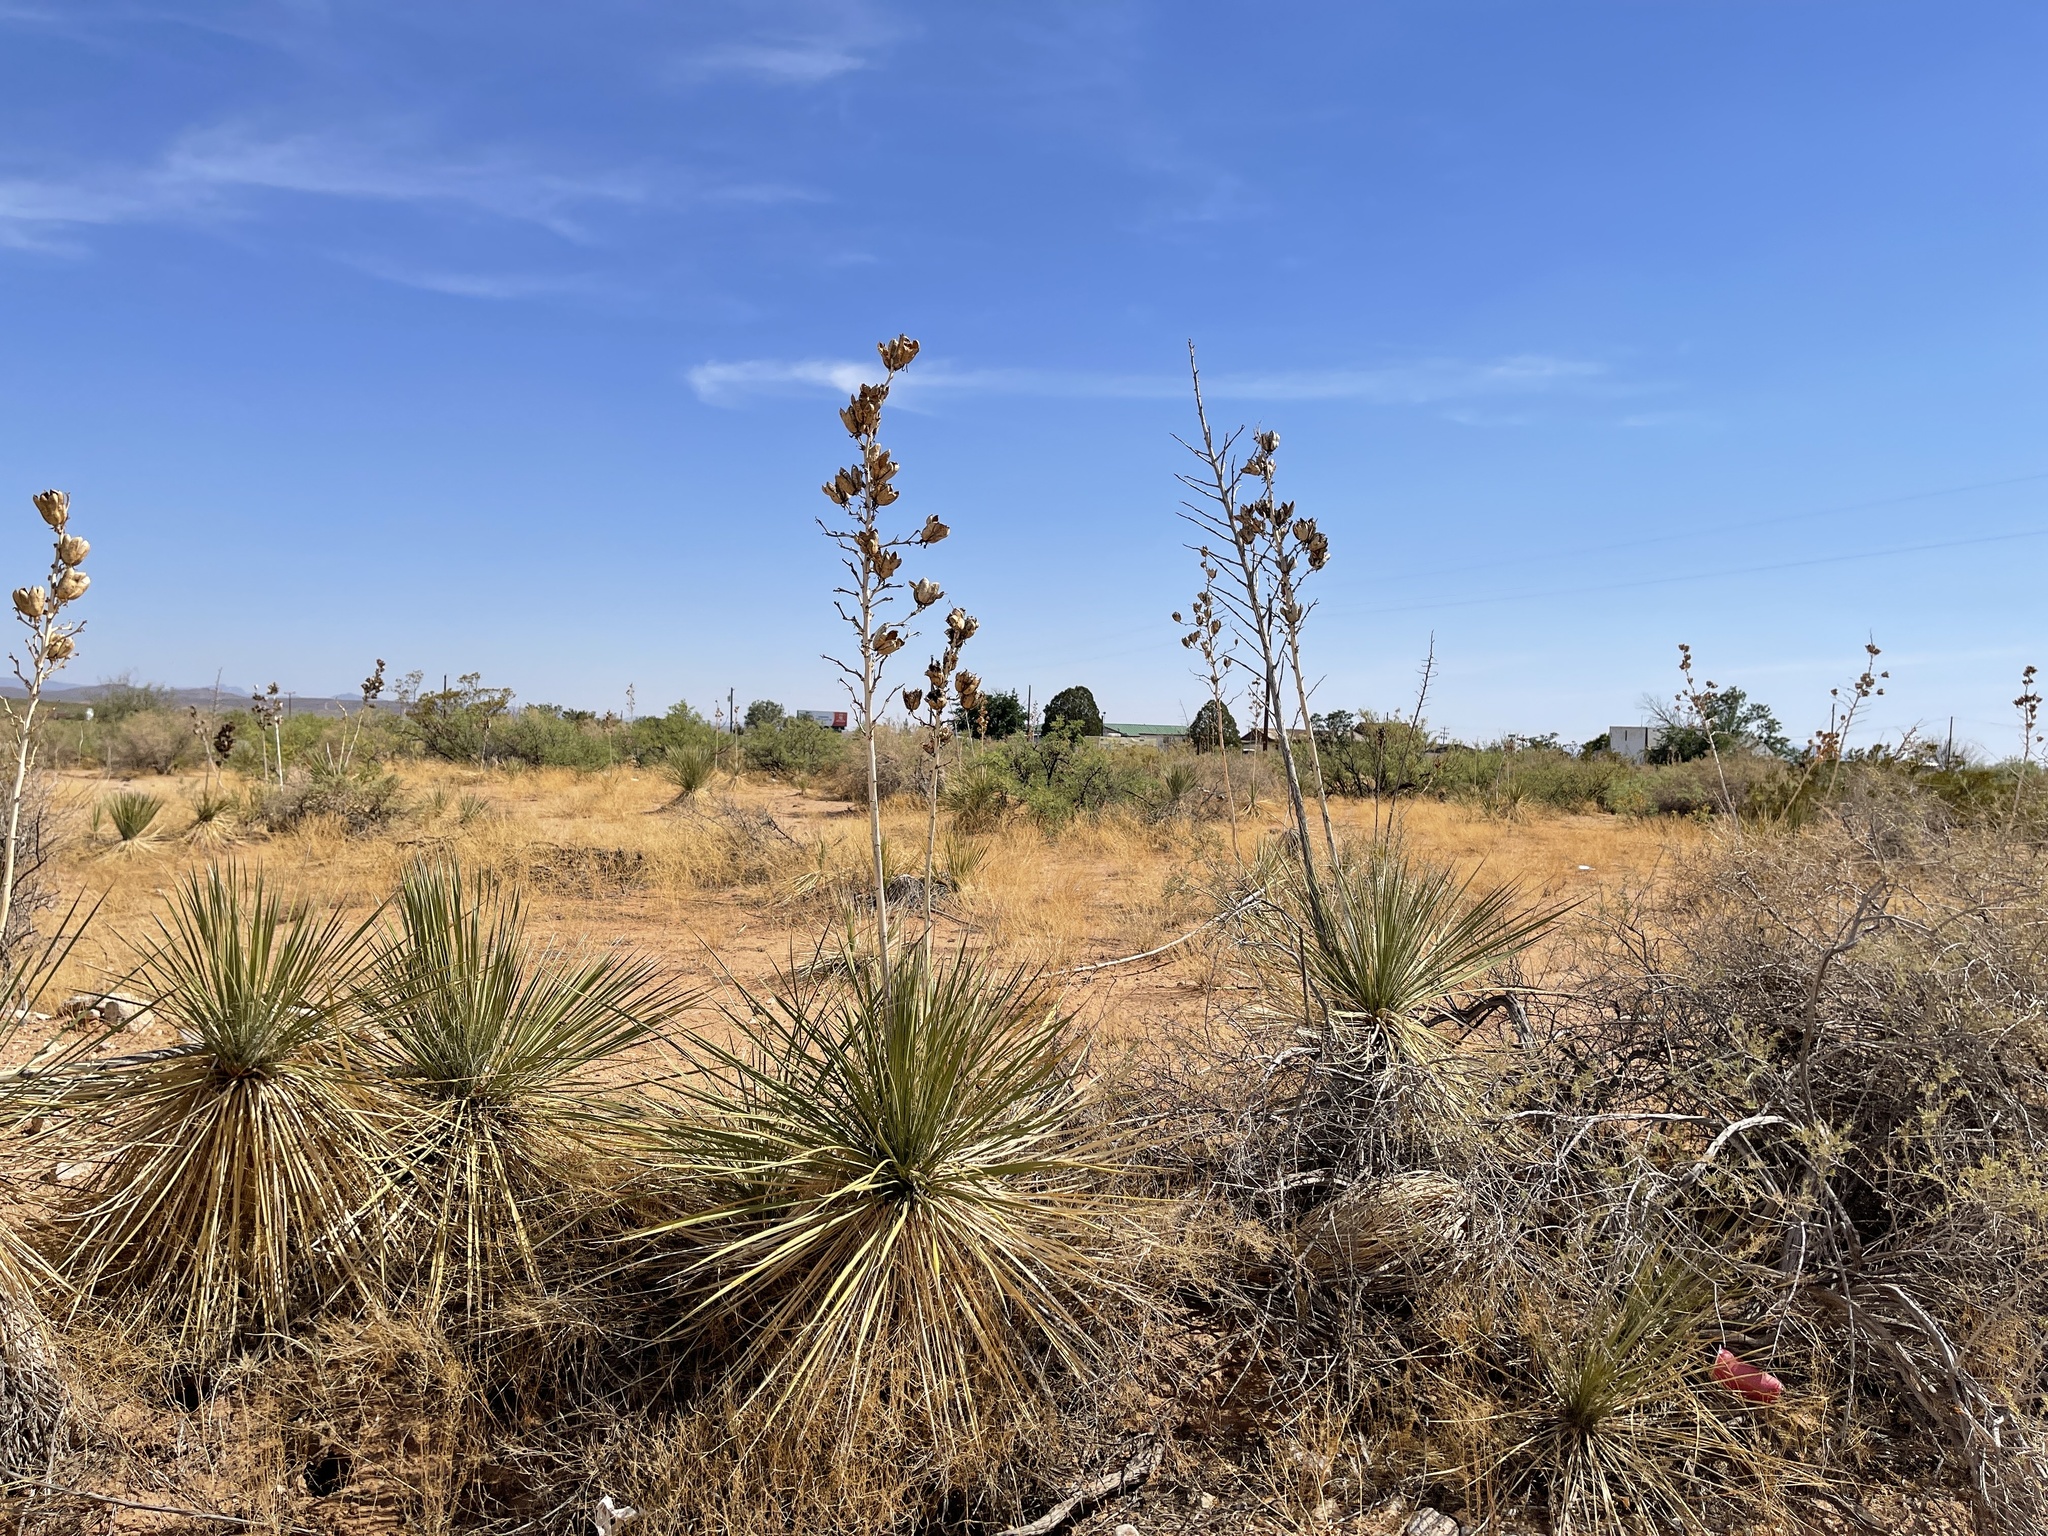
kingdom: Plantae
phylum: Tracheophyta
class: Liliopsida
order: Asparagales
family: Asparagaceae
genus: Yucca
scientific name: Yucca elata
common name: Palmella
